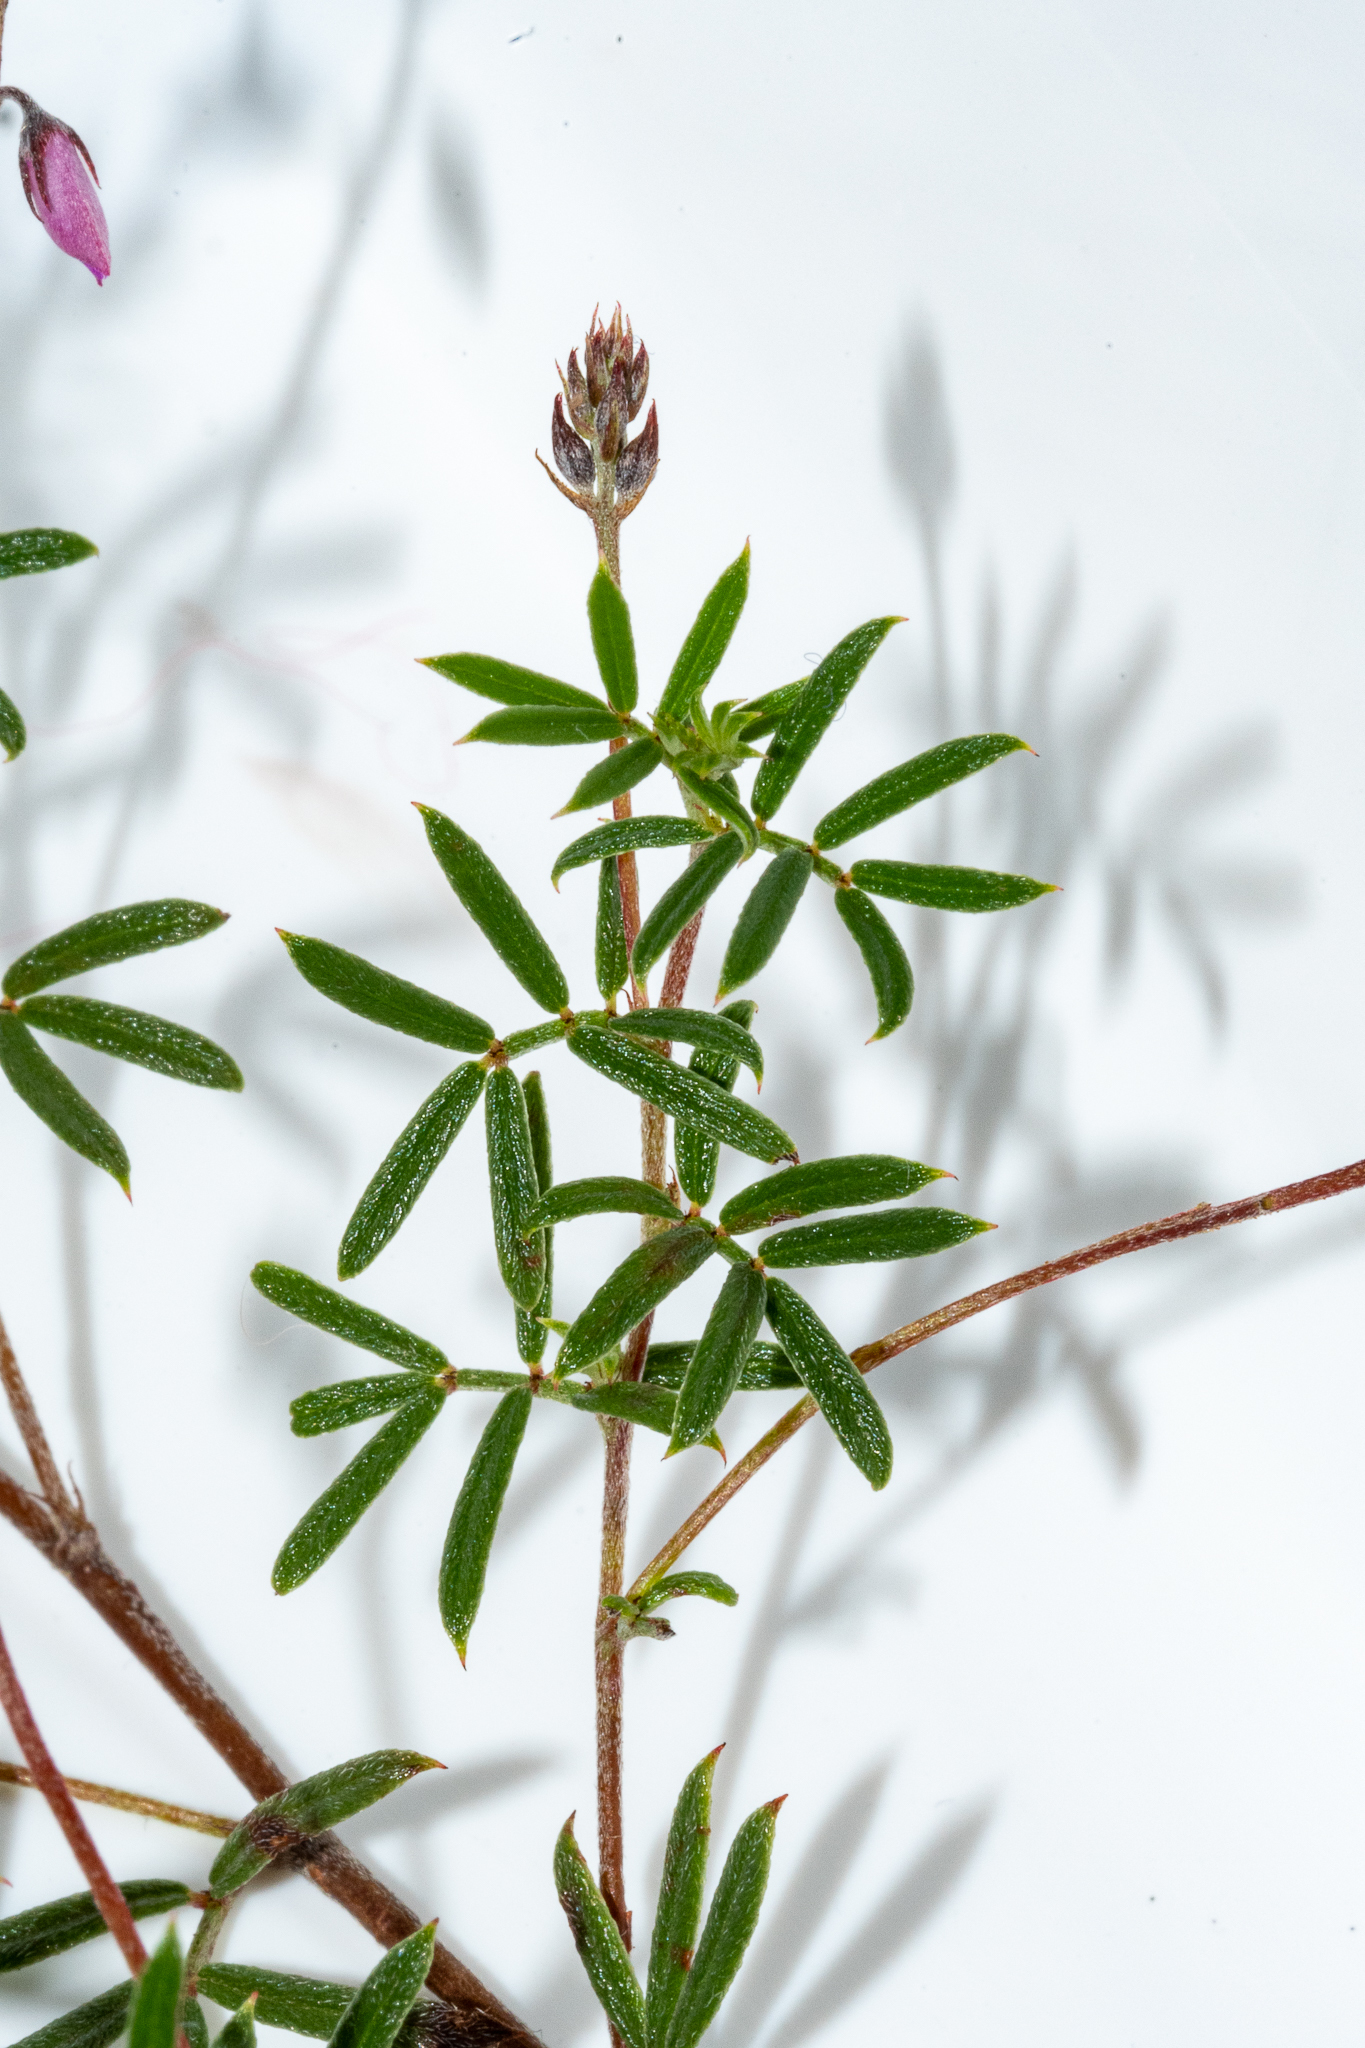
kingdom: Plantae
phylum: Tracheophyta
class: Magnoliopsida
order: Fabales
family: Fabaceae
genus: Indigofera
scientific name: Indigofera angustifolia
